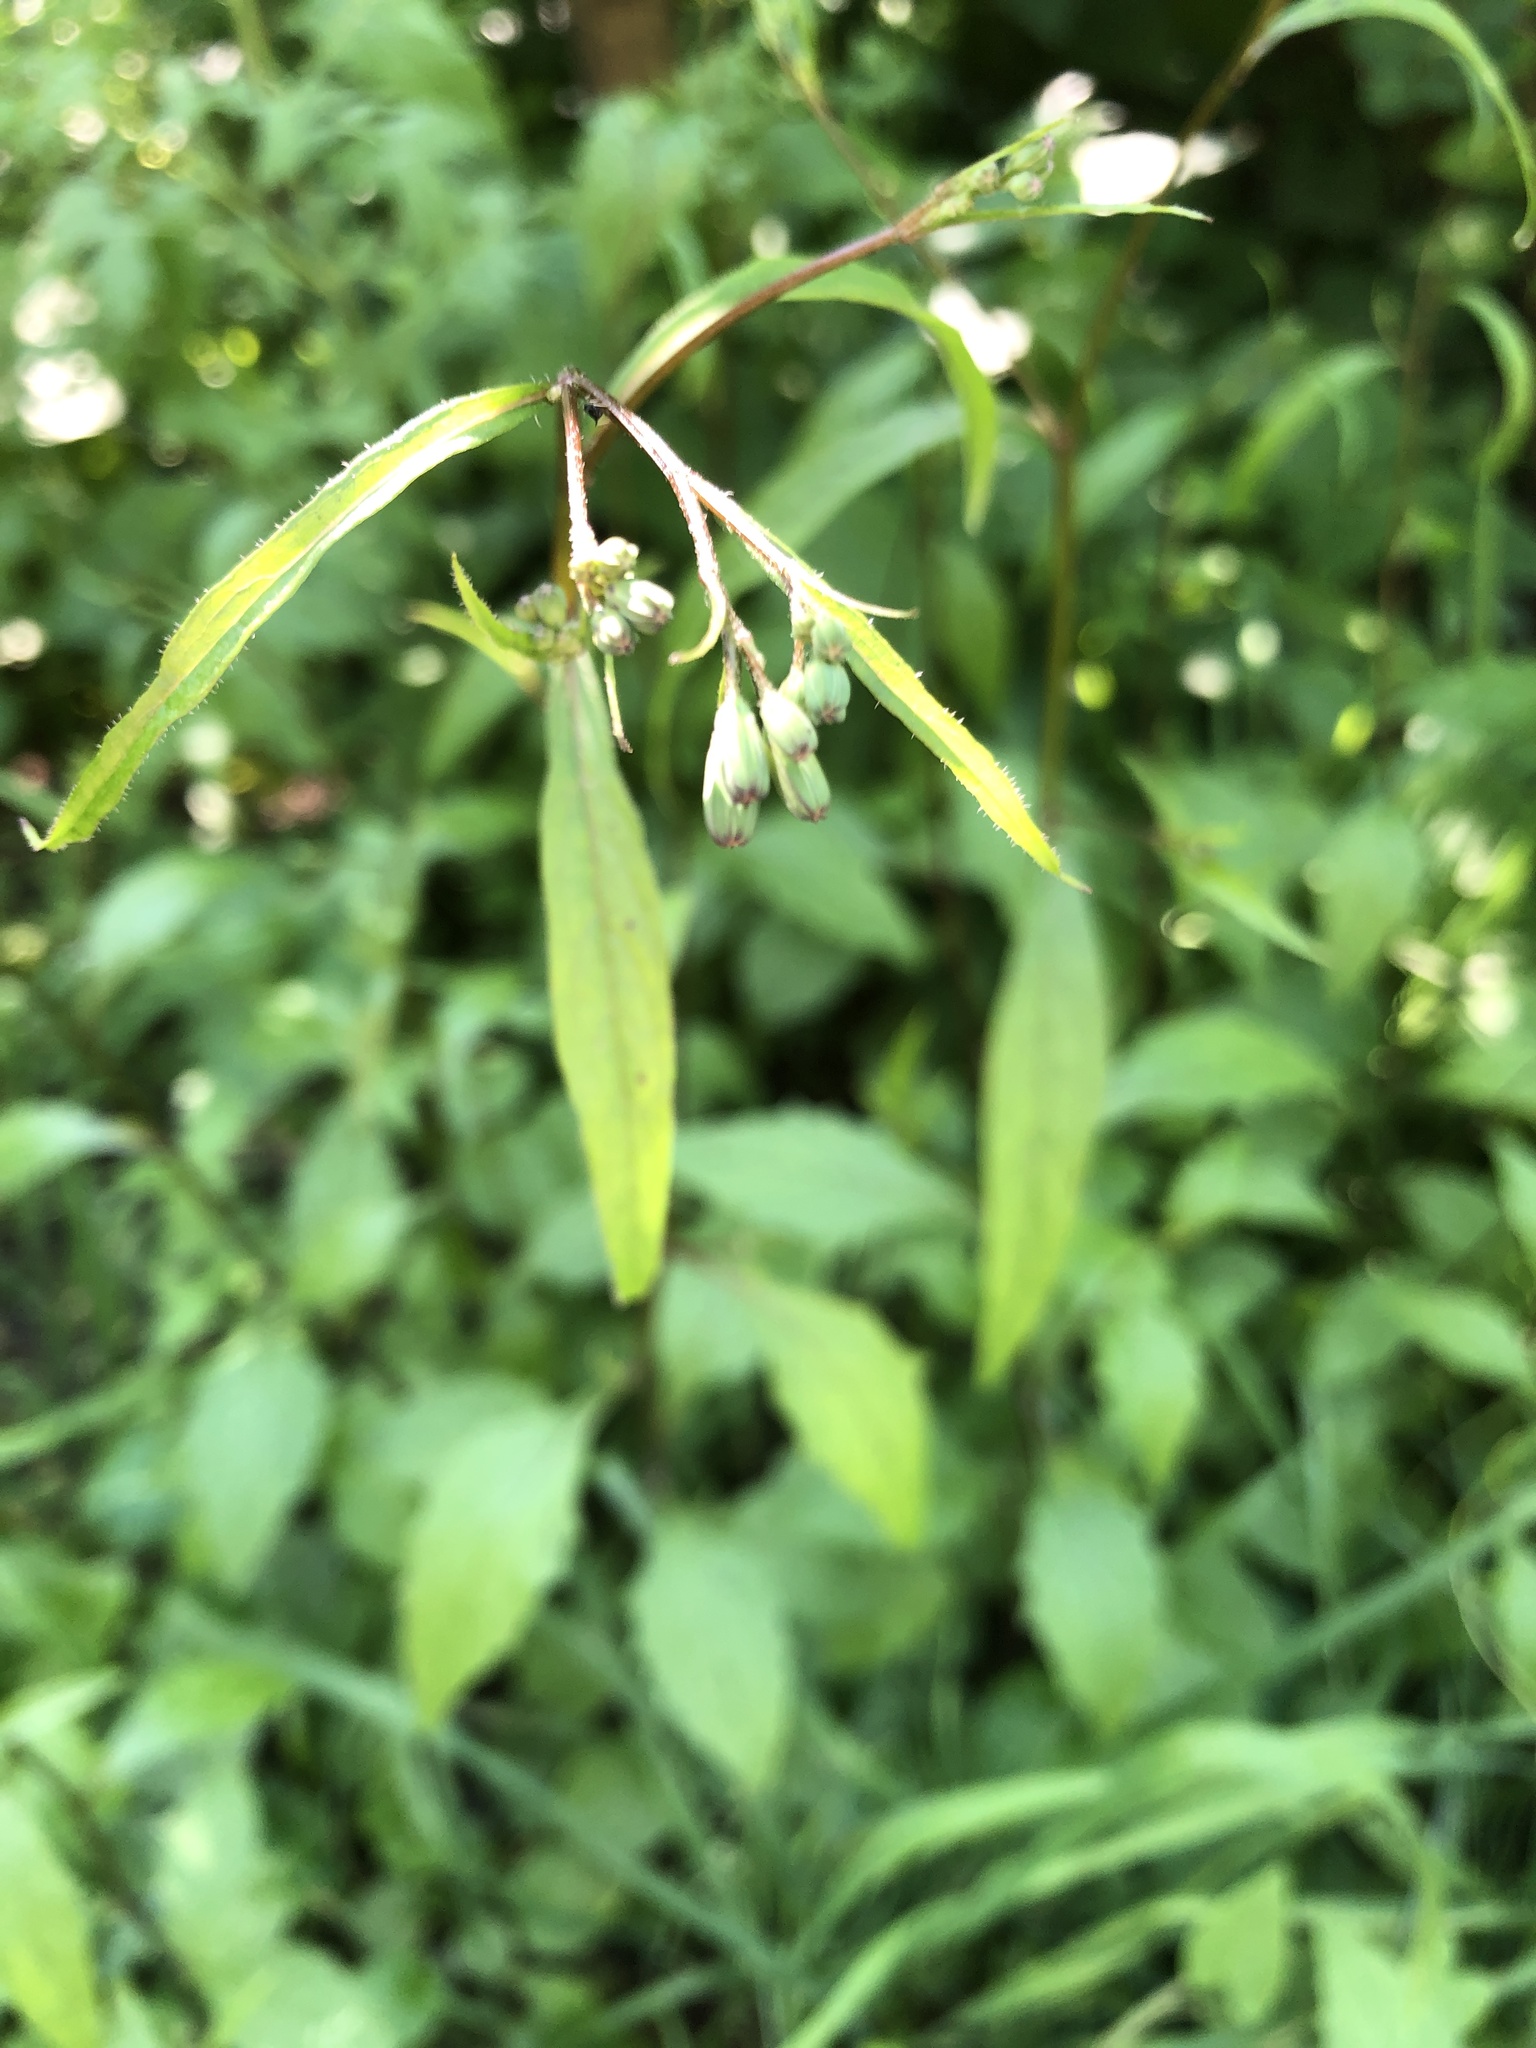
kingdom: Plantae
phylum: Tracheophyta
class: Magnoliopsida
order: Asterales
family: Asteraceae
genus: Lapsana
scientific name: Lapsana communis
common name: Nipplewort
